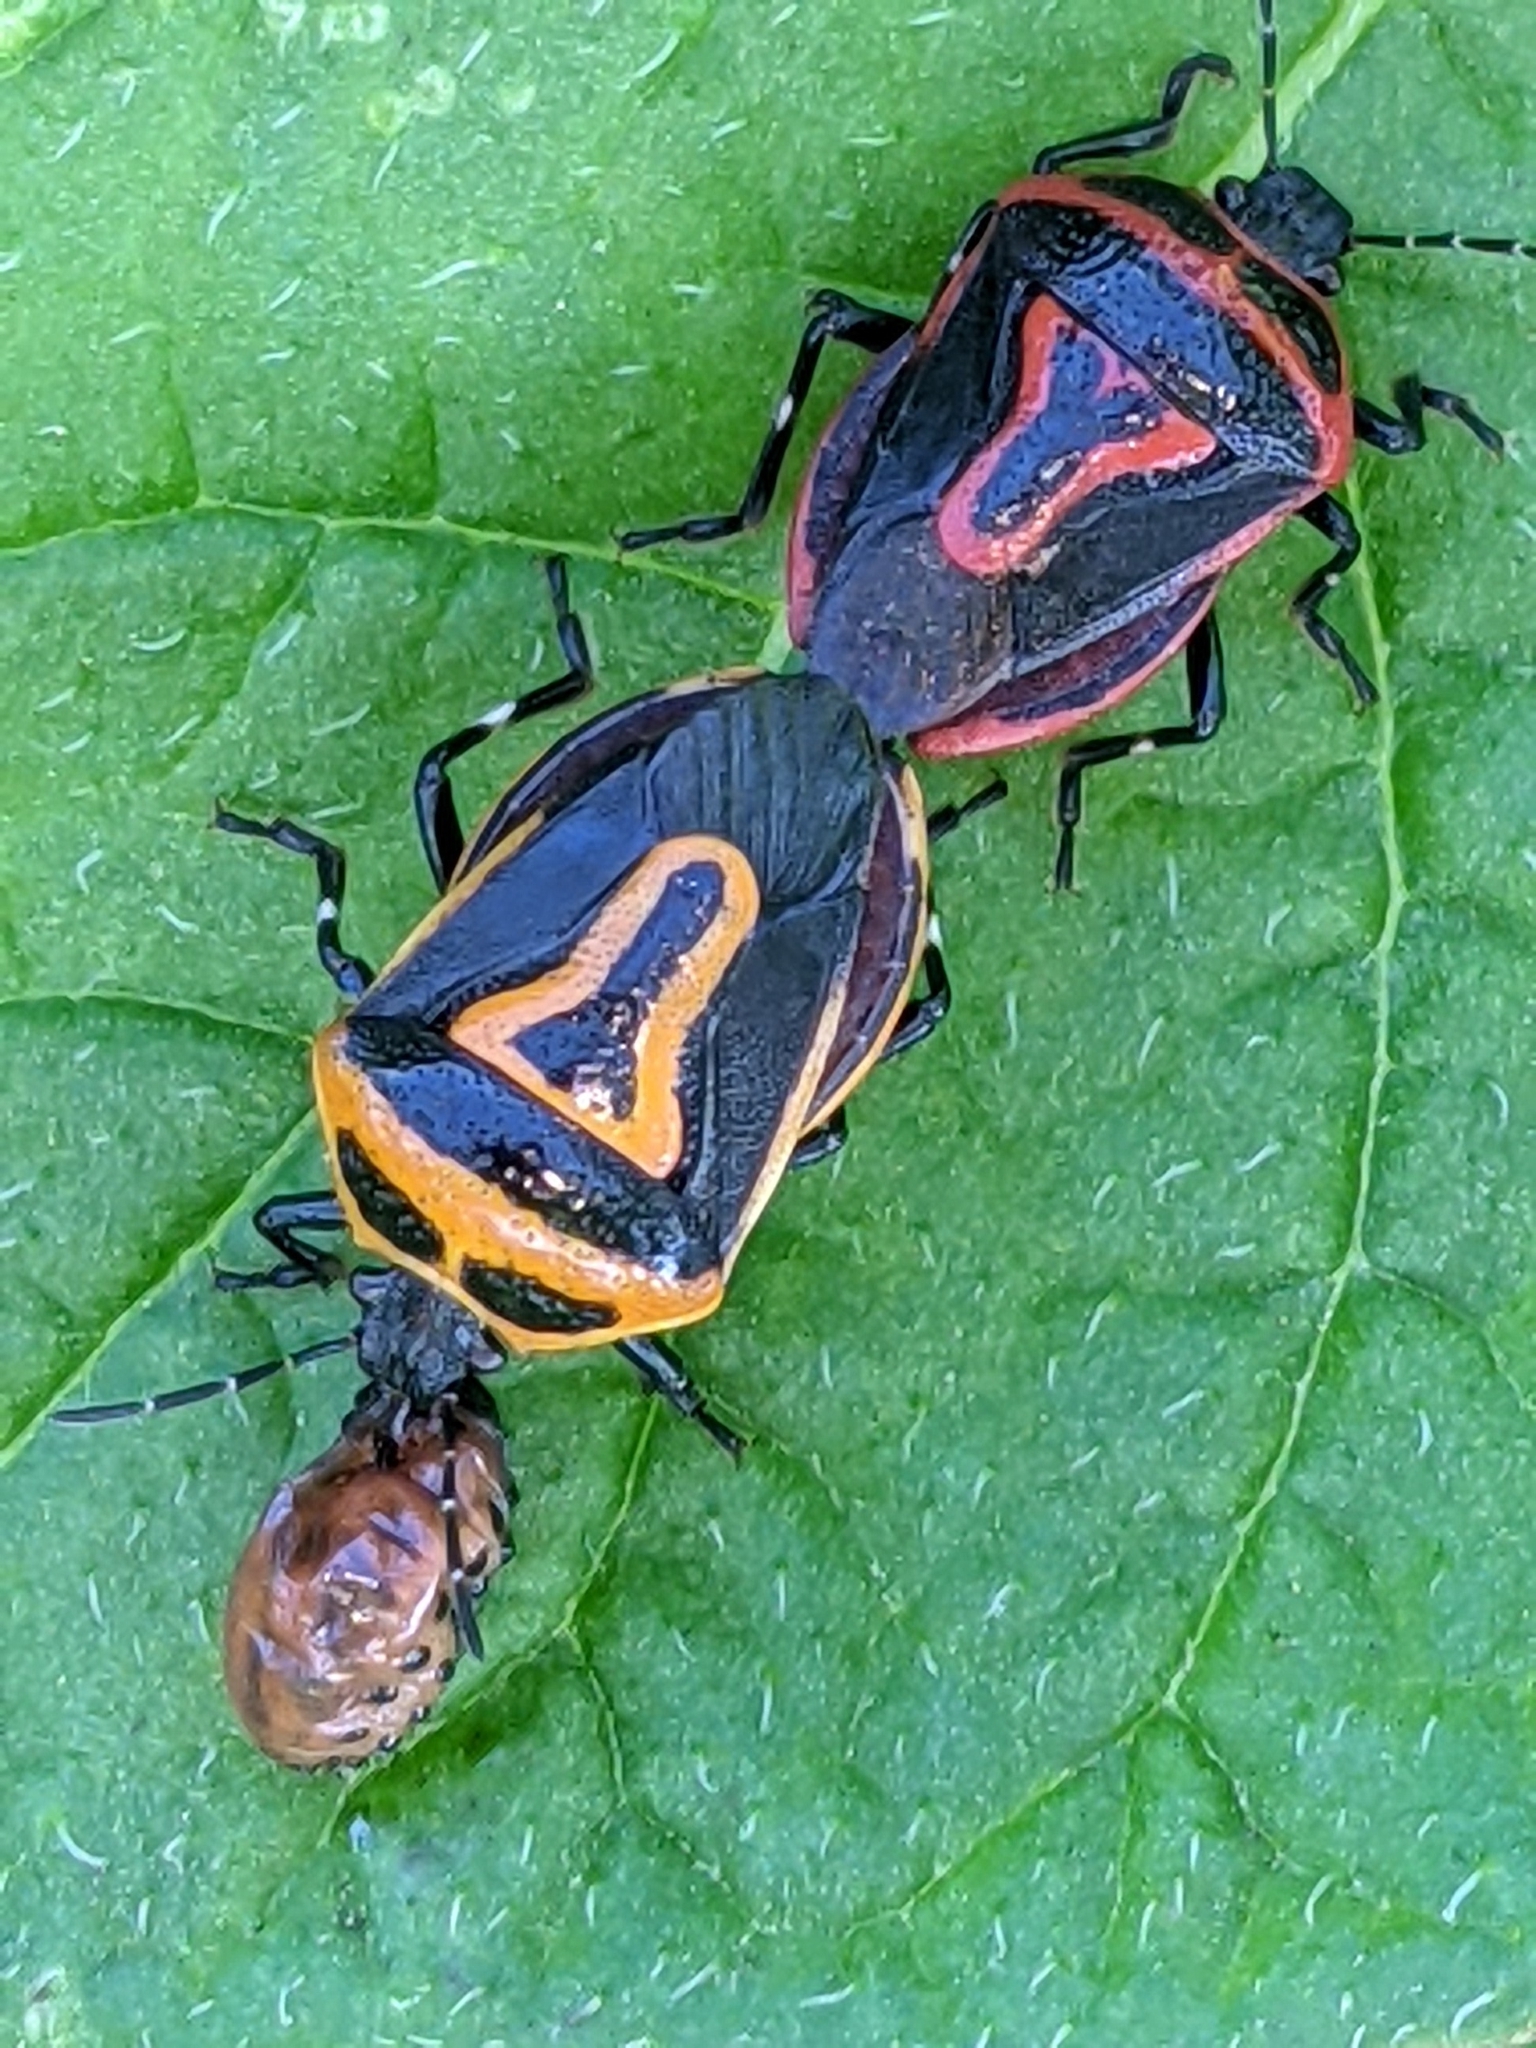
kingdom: Animalia
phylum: Arthropoda
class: Insecta
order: Hemiptera
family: Pentatomidae
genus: Perillus
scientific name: Perillus bioculatus
